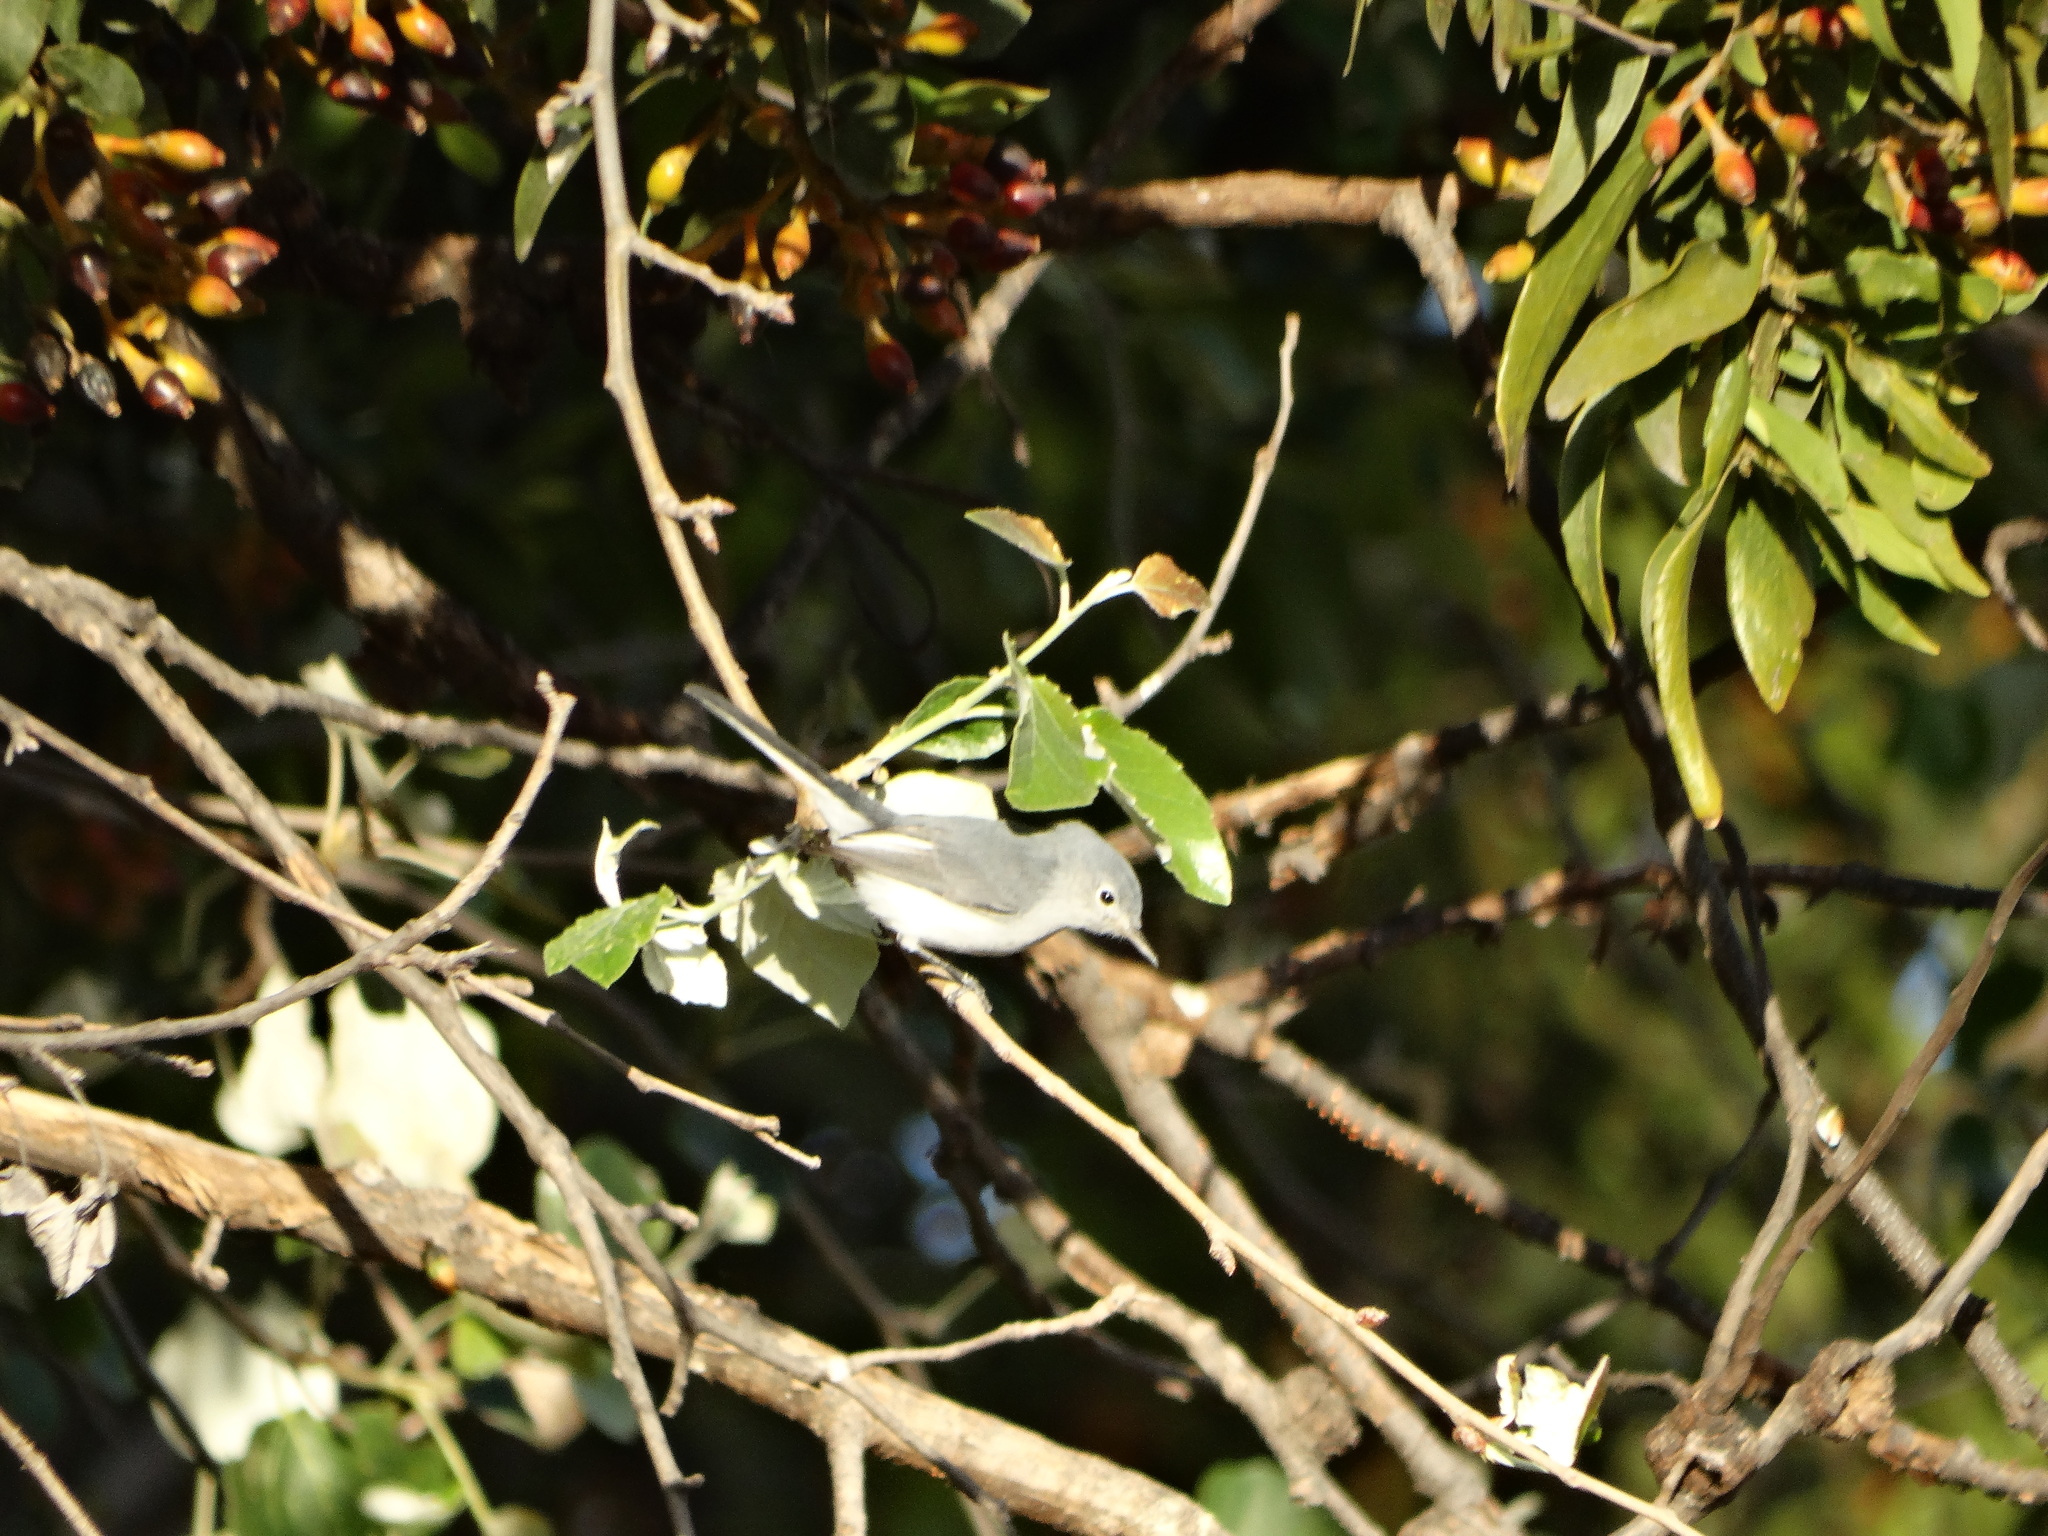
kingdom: Animalia
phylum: Chordata
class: Aves
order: Passeriformes
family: Polioptilidae
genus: Polioptila
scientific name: Polioptila caerulea
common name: Blue-gray gnatcatcher
